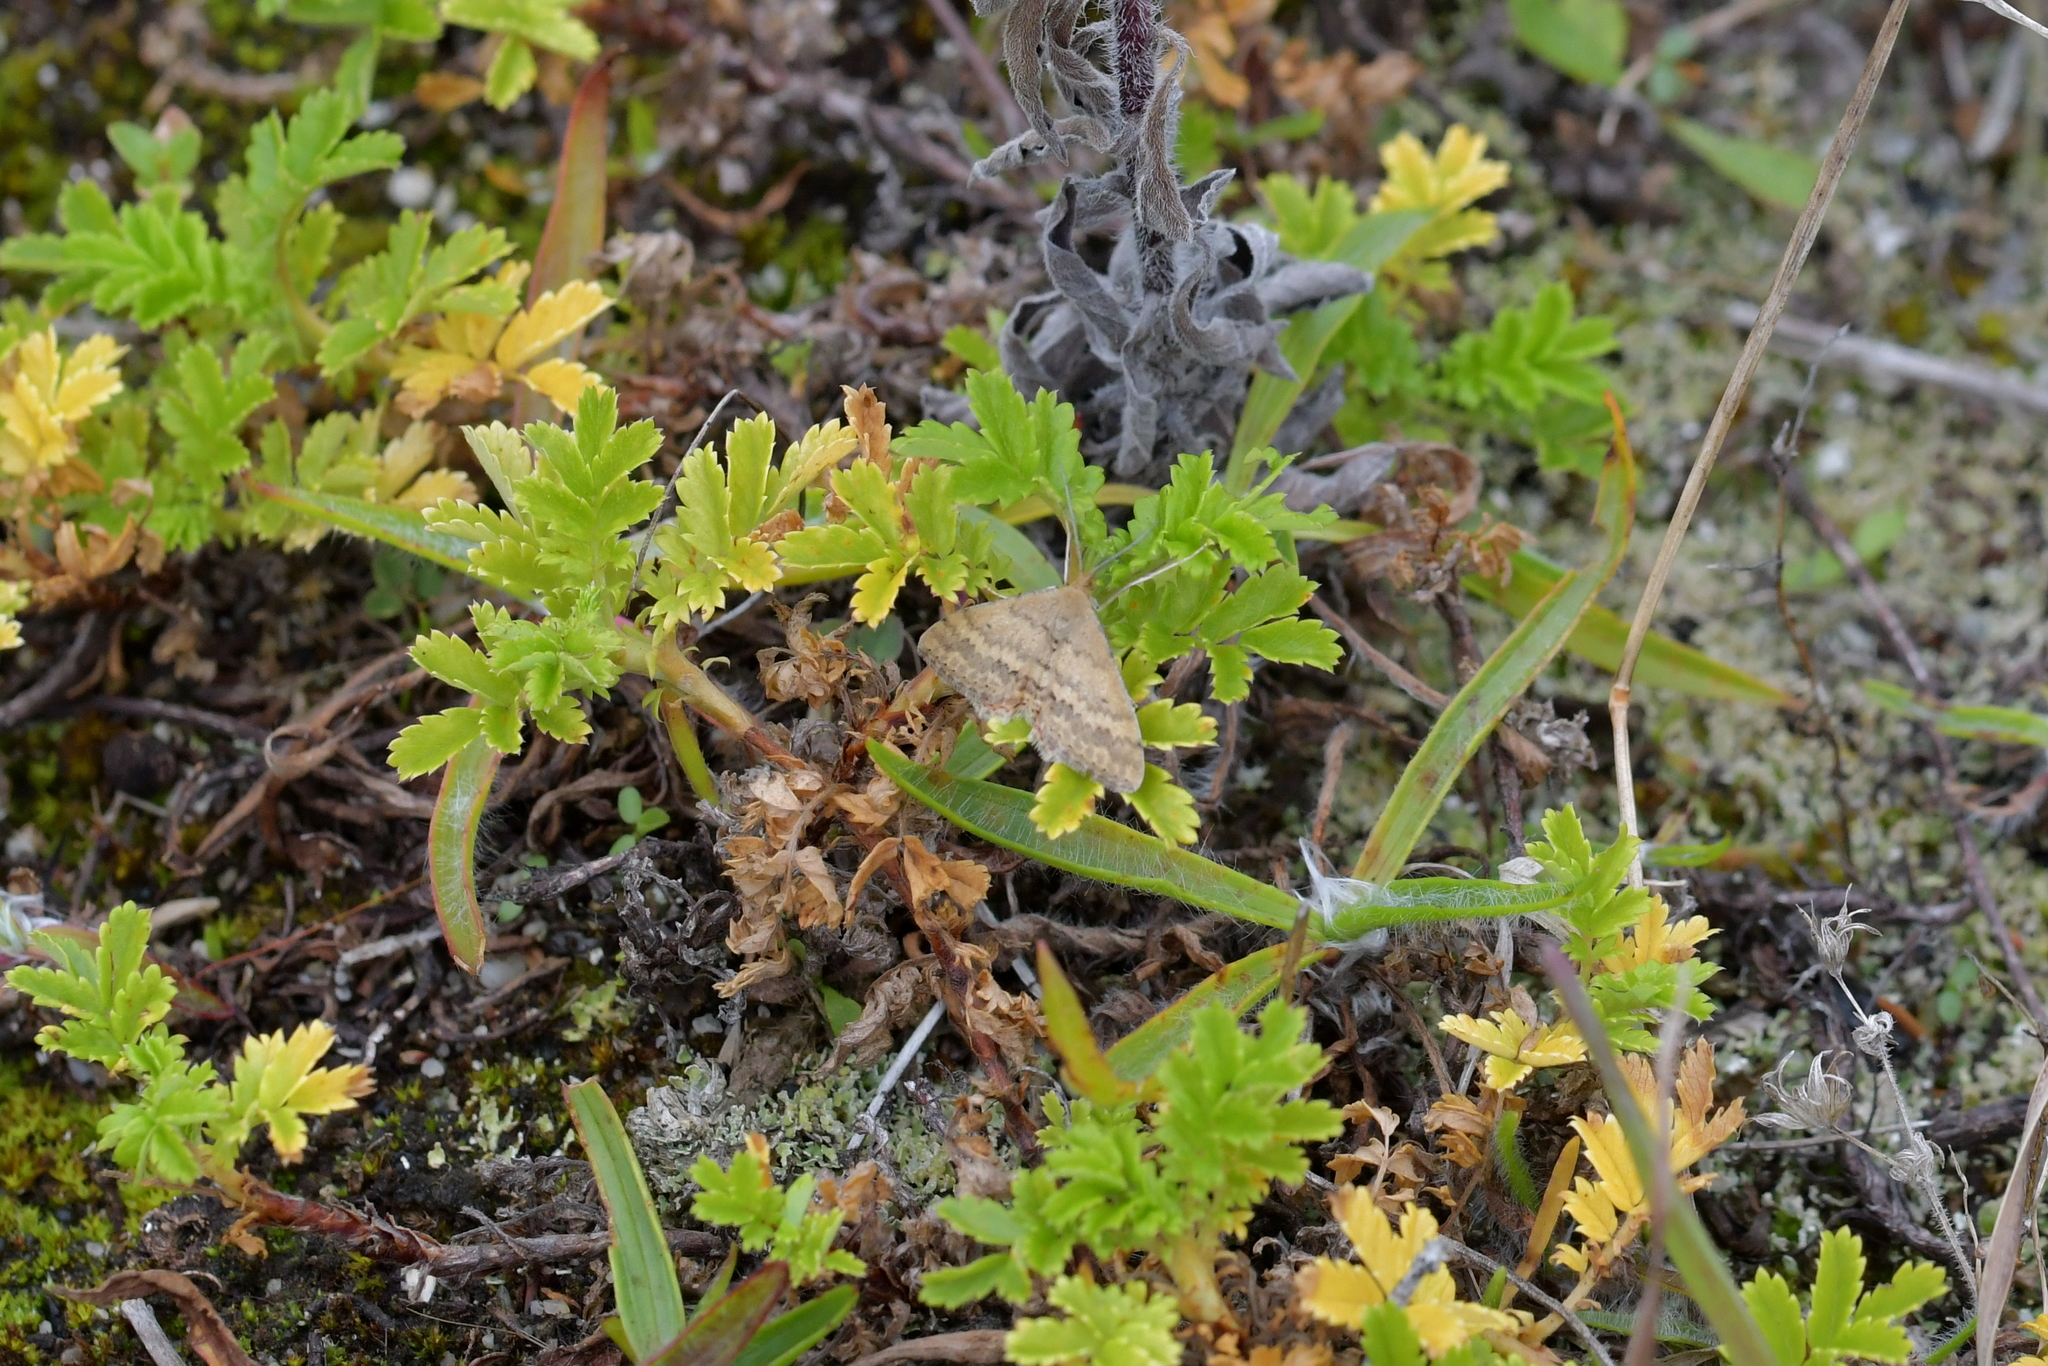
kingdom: Animalia
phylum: Arthropoda
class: Insecta
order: Lepidoptera
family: Geometridae
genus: Scopula
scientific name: Scopula rubraria
